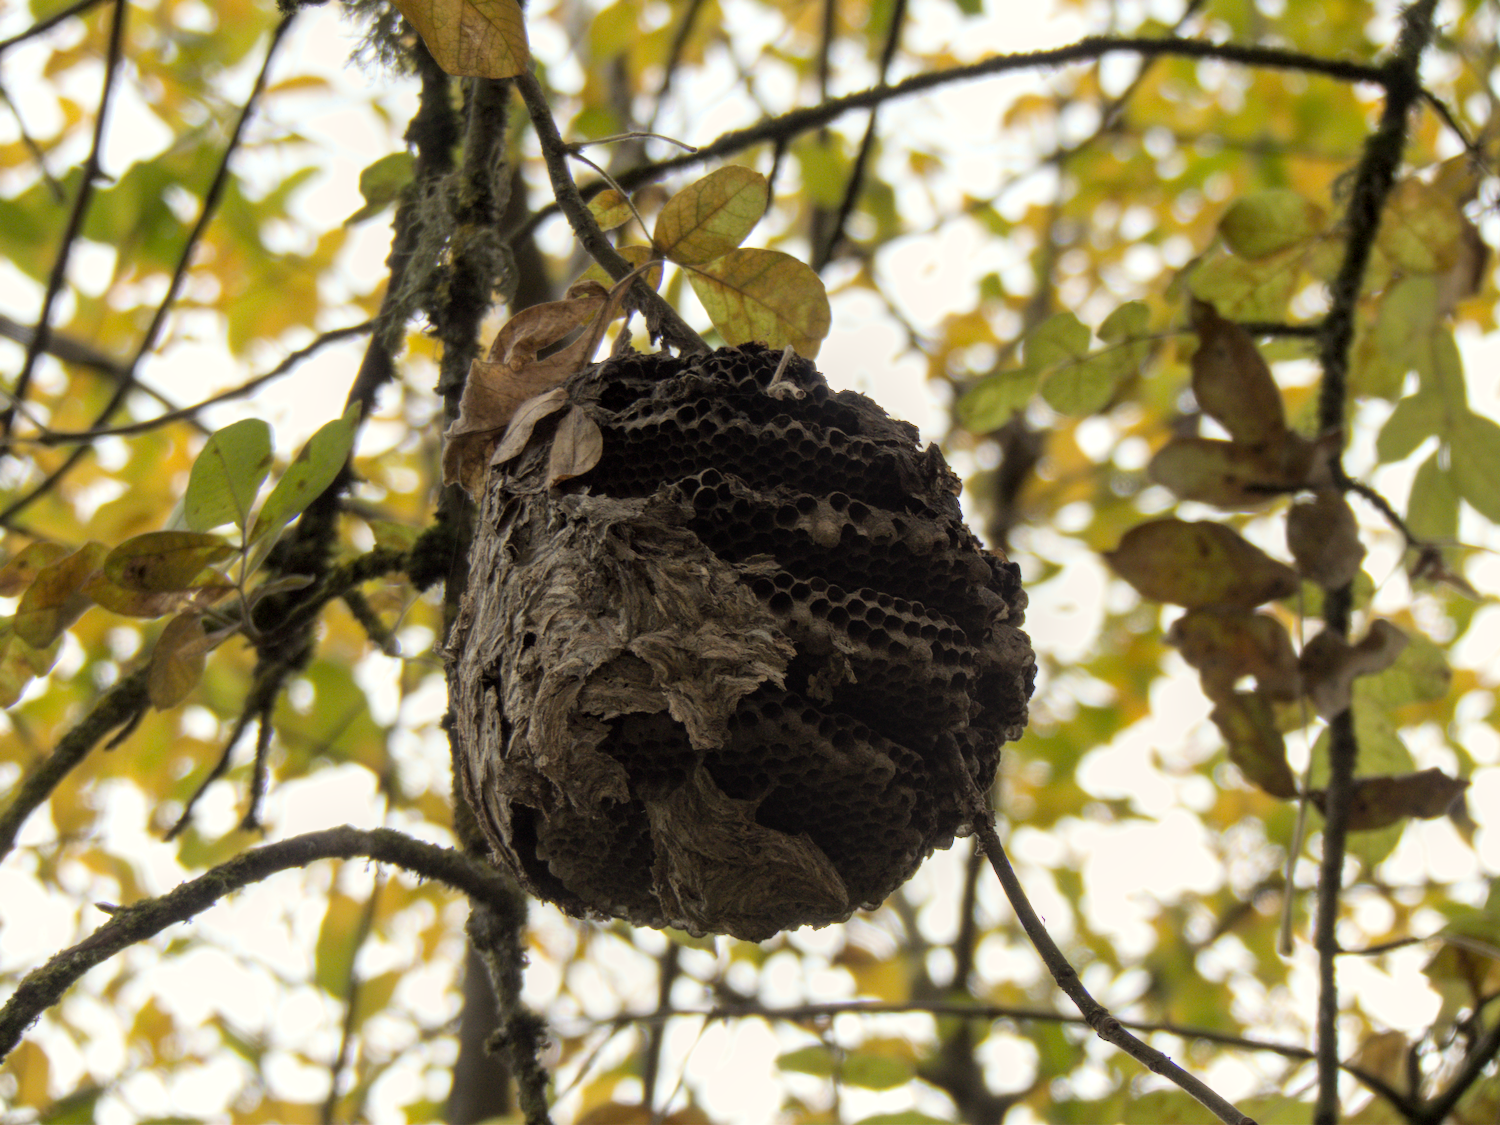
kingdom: Animalia
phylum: Arthropoda
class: Insecta
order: Hymenoptera
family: Vespidae
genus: Dolichovespula
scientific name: Dolichovespula
